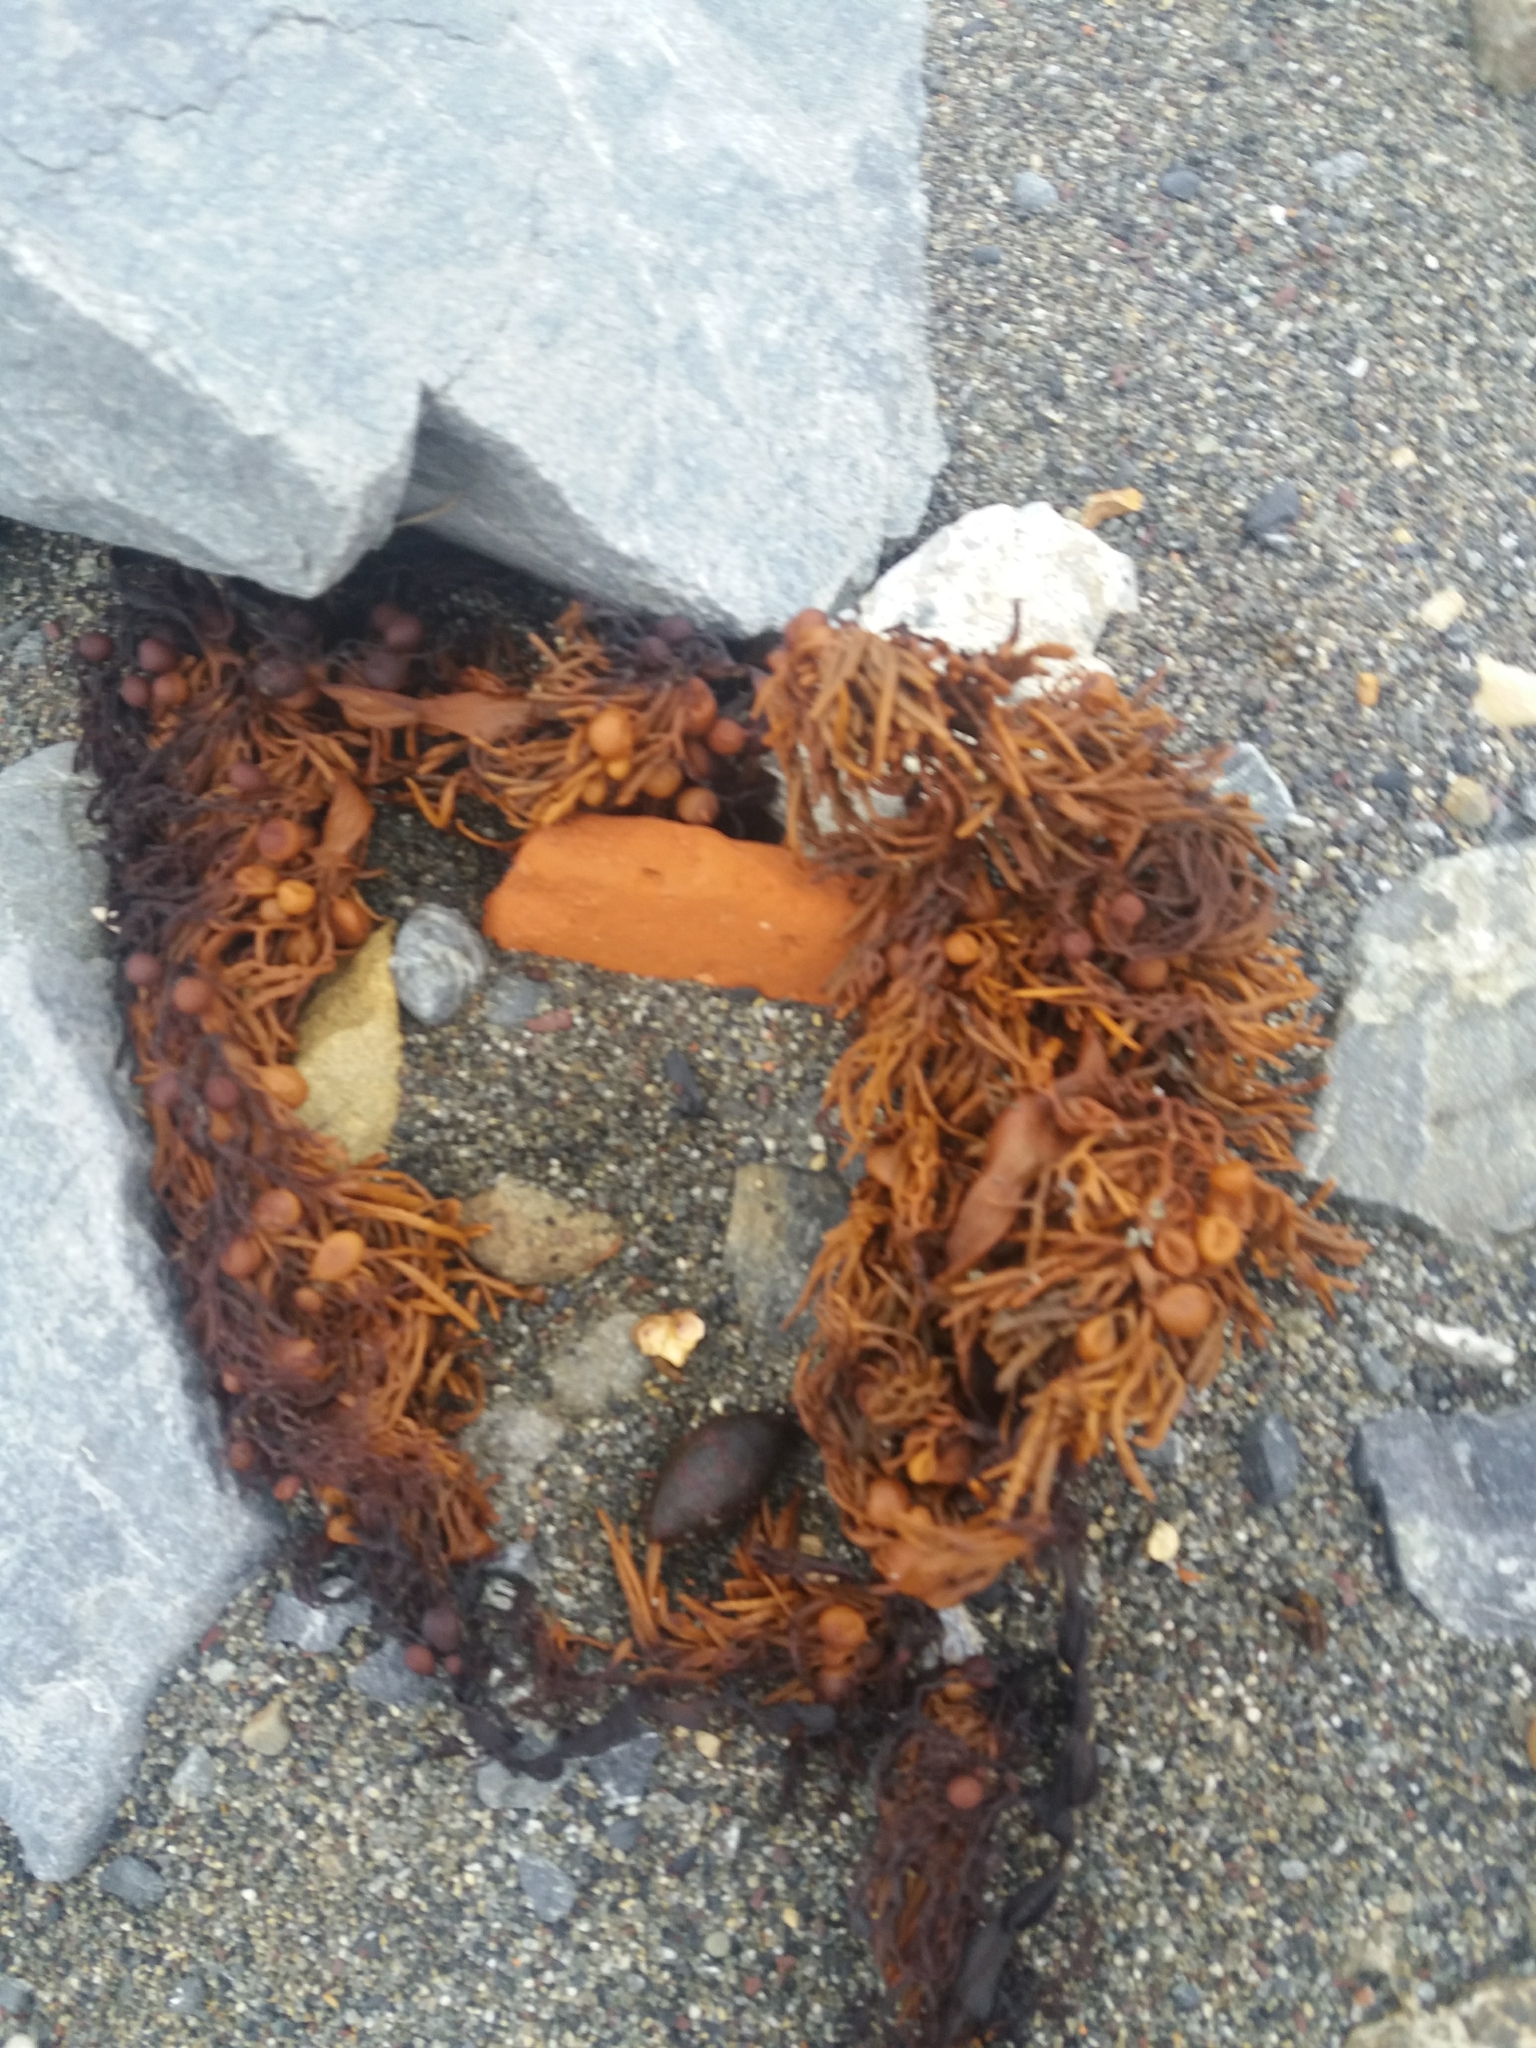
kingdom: Chromista
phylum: Ochrophyta
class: Phaeophyceae
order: Fucales
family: Sargassaceae
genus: Cystophora
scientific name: Cystophora retroflexa
